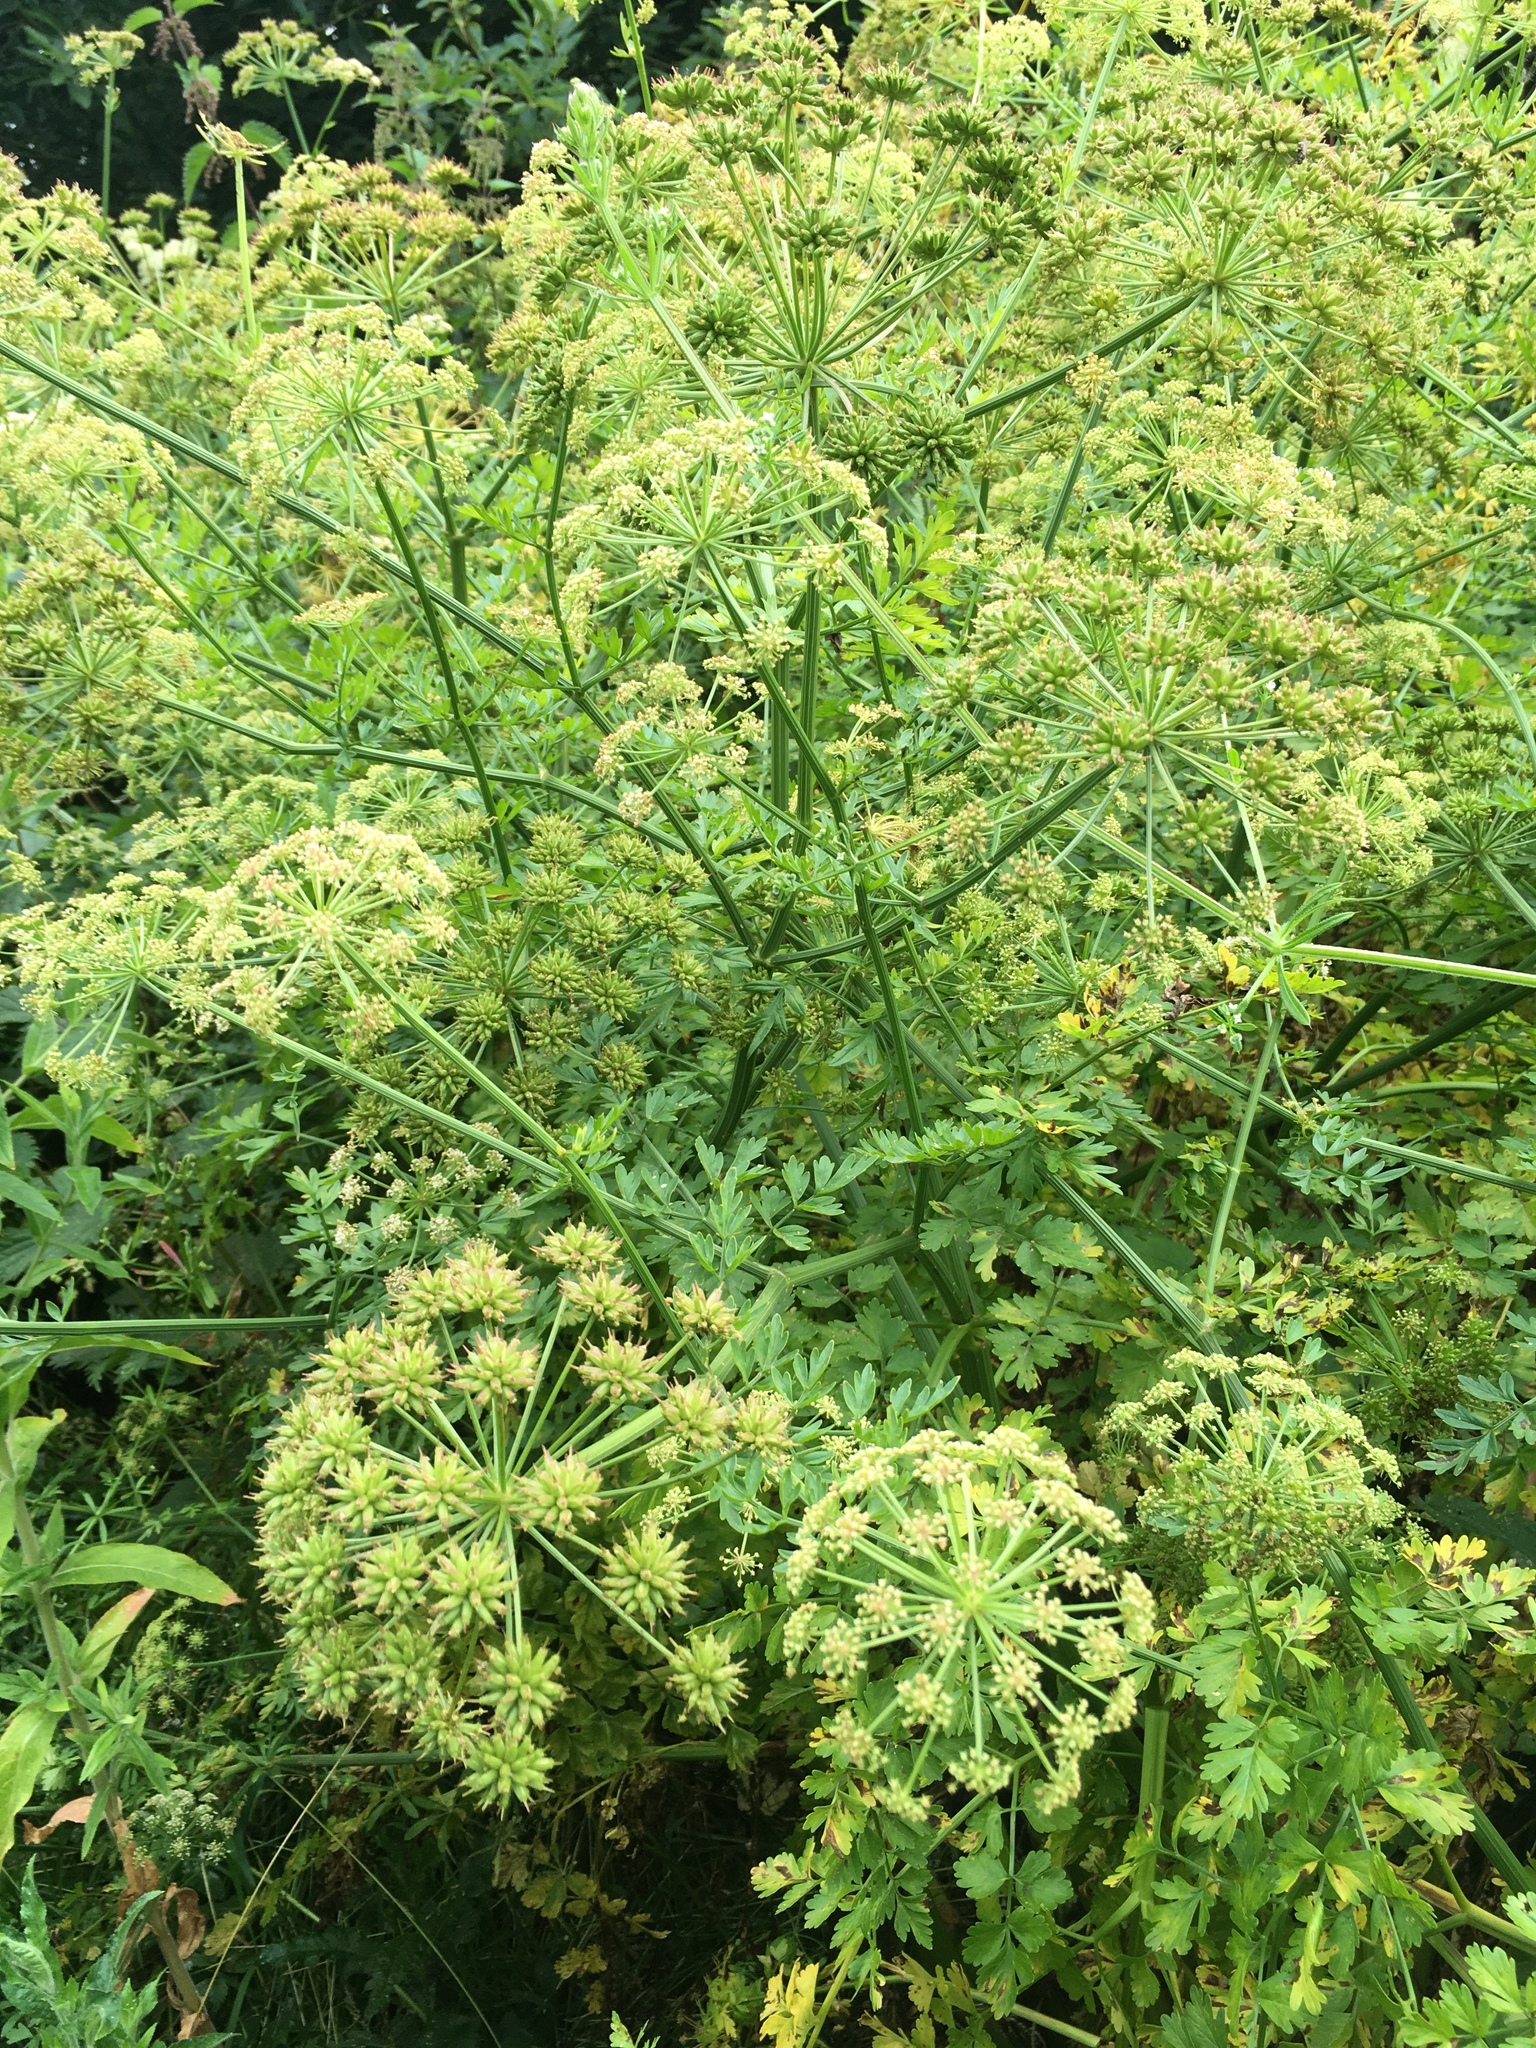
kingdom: Plantae
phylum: Tracheophyta
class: Magnoliopsida
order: Apiales
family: Apiaceae
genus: Oenanthe
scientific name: Oenanthe crocata
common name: Hemlock water-dropwort
